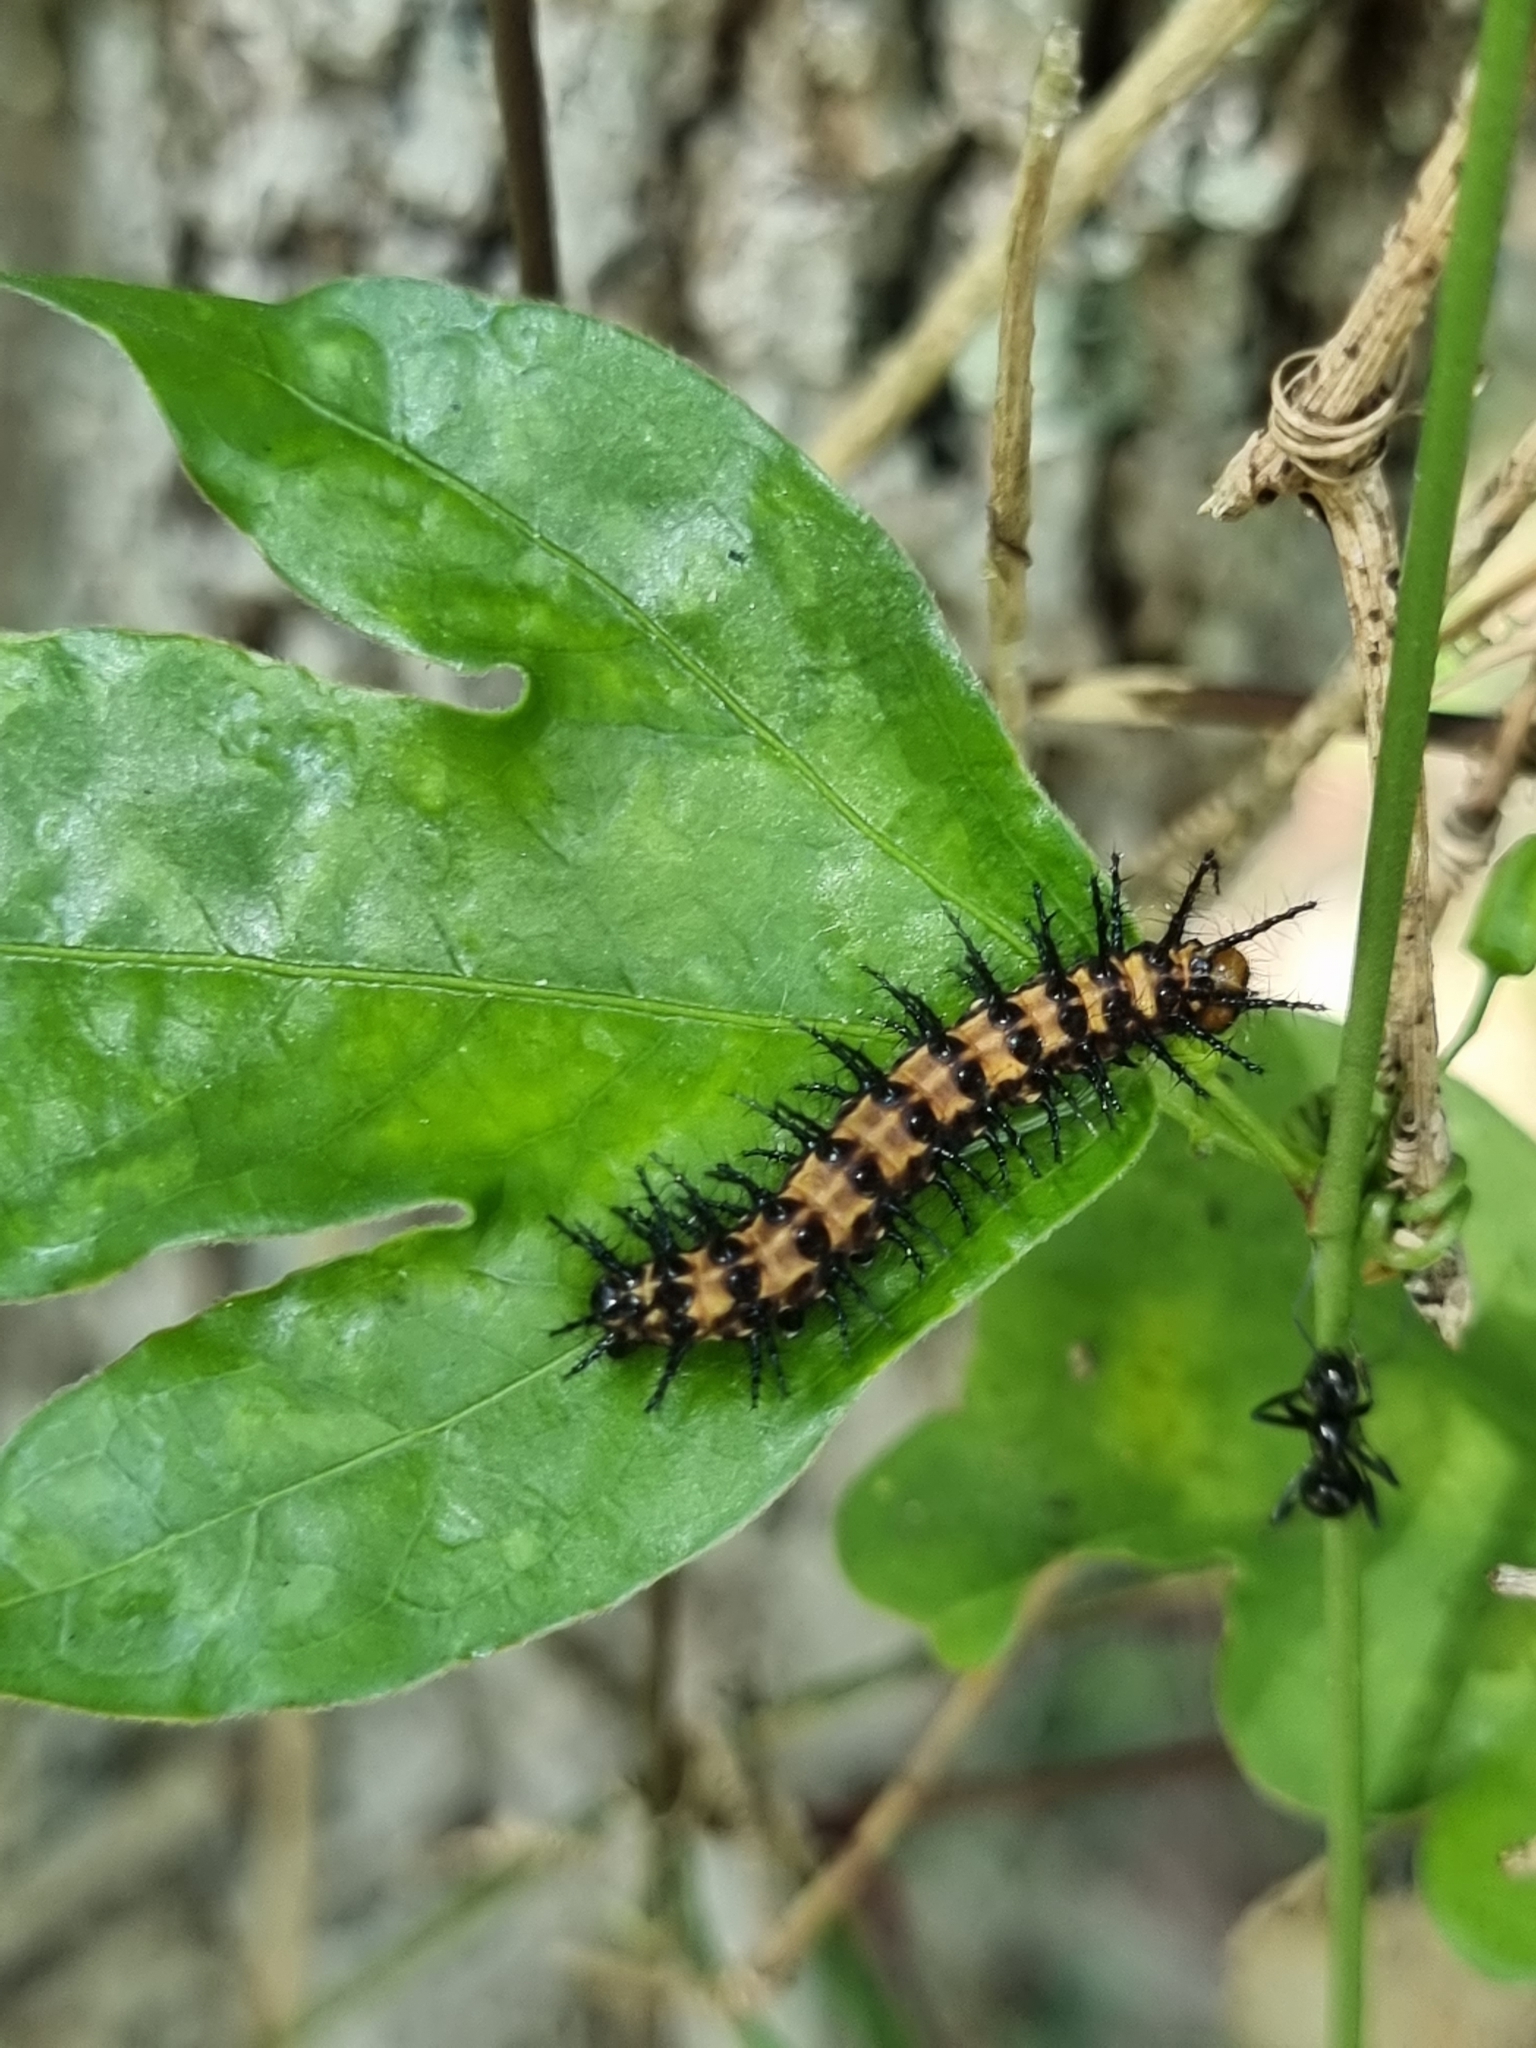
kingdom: Animalia
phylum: Arthropoda
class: Insecta
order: Lepidoptera
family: Nymphalidae
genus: Acraea
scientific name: Acraea andromacha
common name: Glasswing
